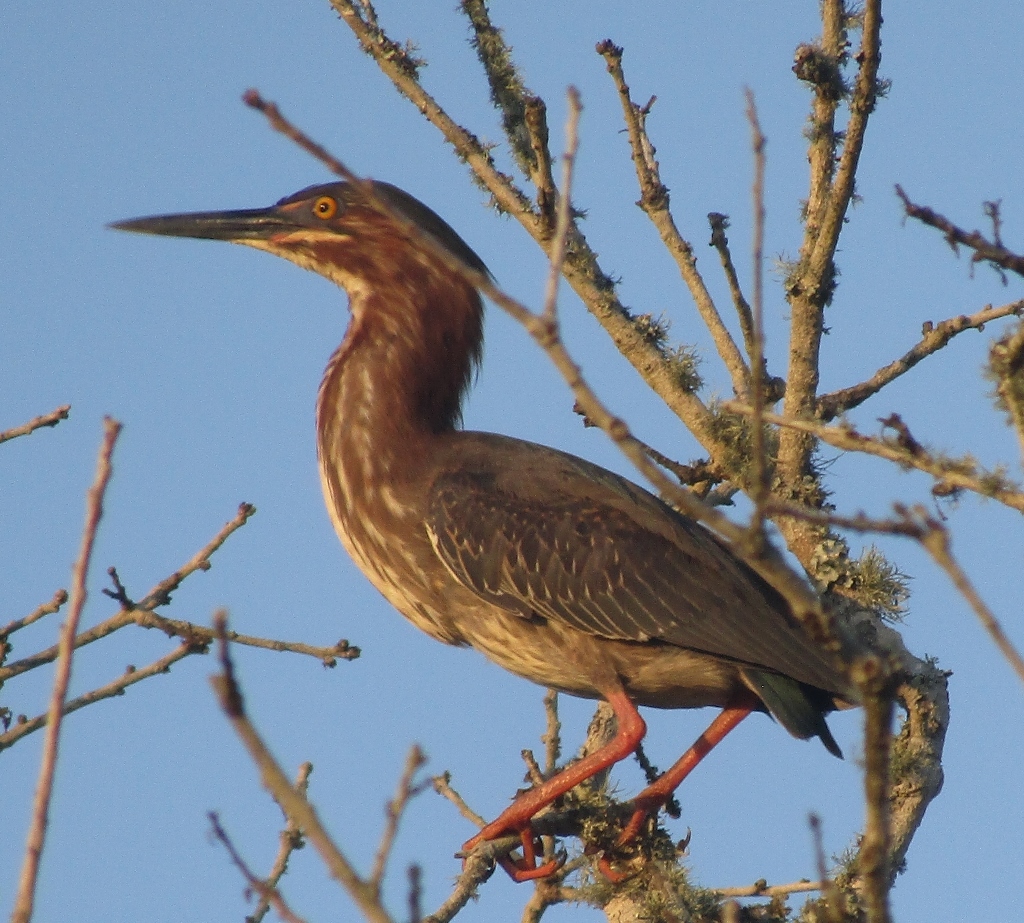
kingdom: Animalia
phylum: Chordata
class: Aves
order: Pelecaniformes
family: Ardeidae
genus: Butorides
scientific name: Butorides virescens
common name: Green heron
